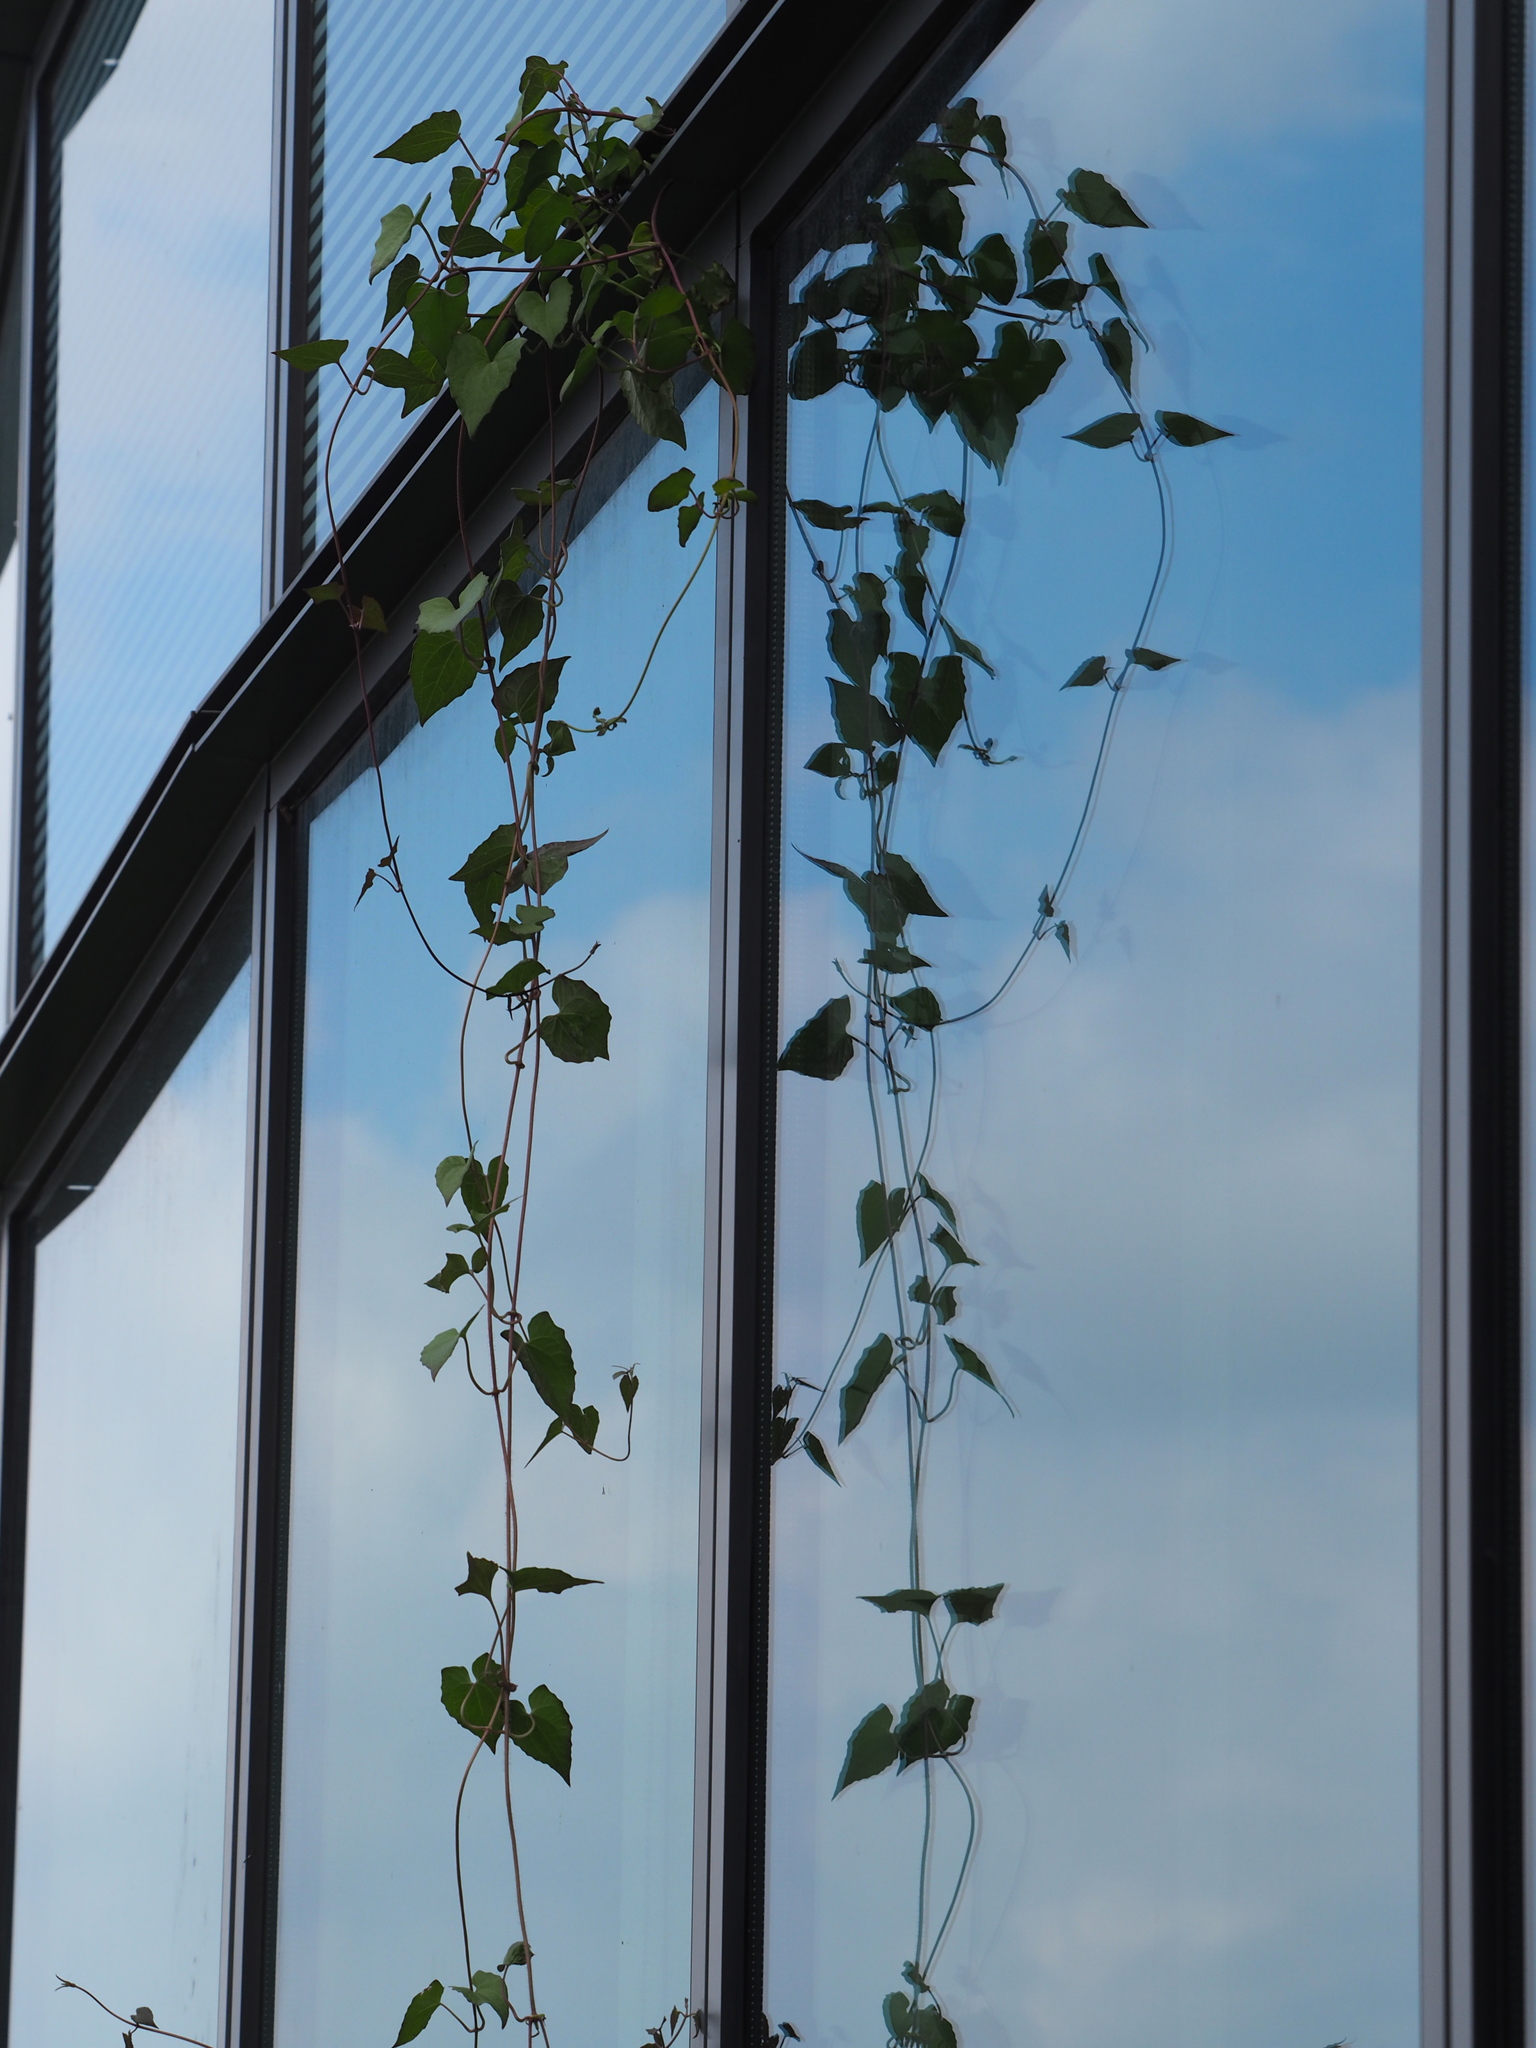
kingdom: Plantae
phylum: Tracheophyta
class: Magnoliopsida
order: Asterales
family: Asteraceae
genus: Mikania
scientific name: Mikania micrantha
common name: Mile-a-minute
